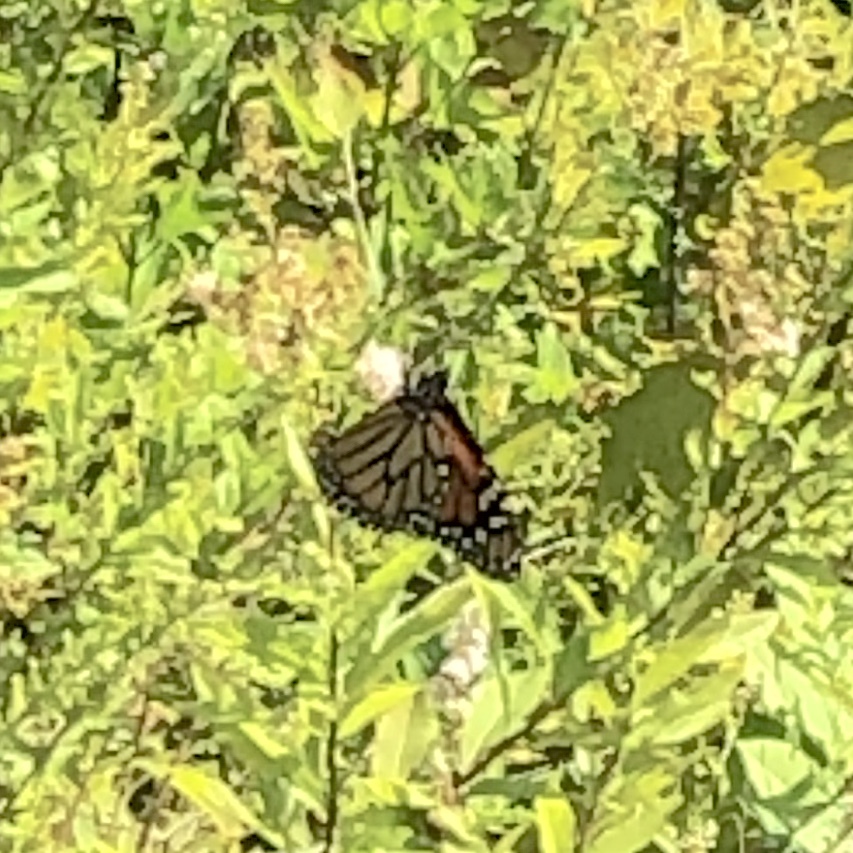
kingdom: Animalia
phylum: Arthropoda
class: Insecta
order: Lepidoptera
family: Nymphalidae
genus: Danaus
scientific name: Danaus plexippus
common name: Monarch
